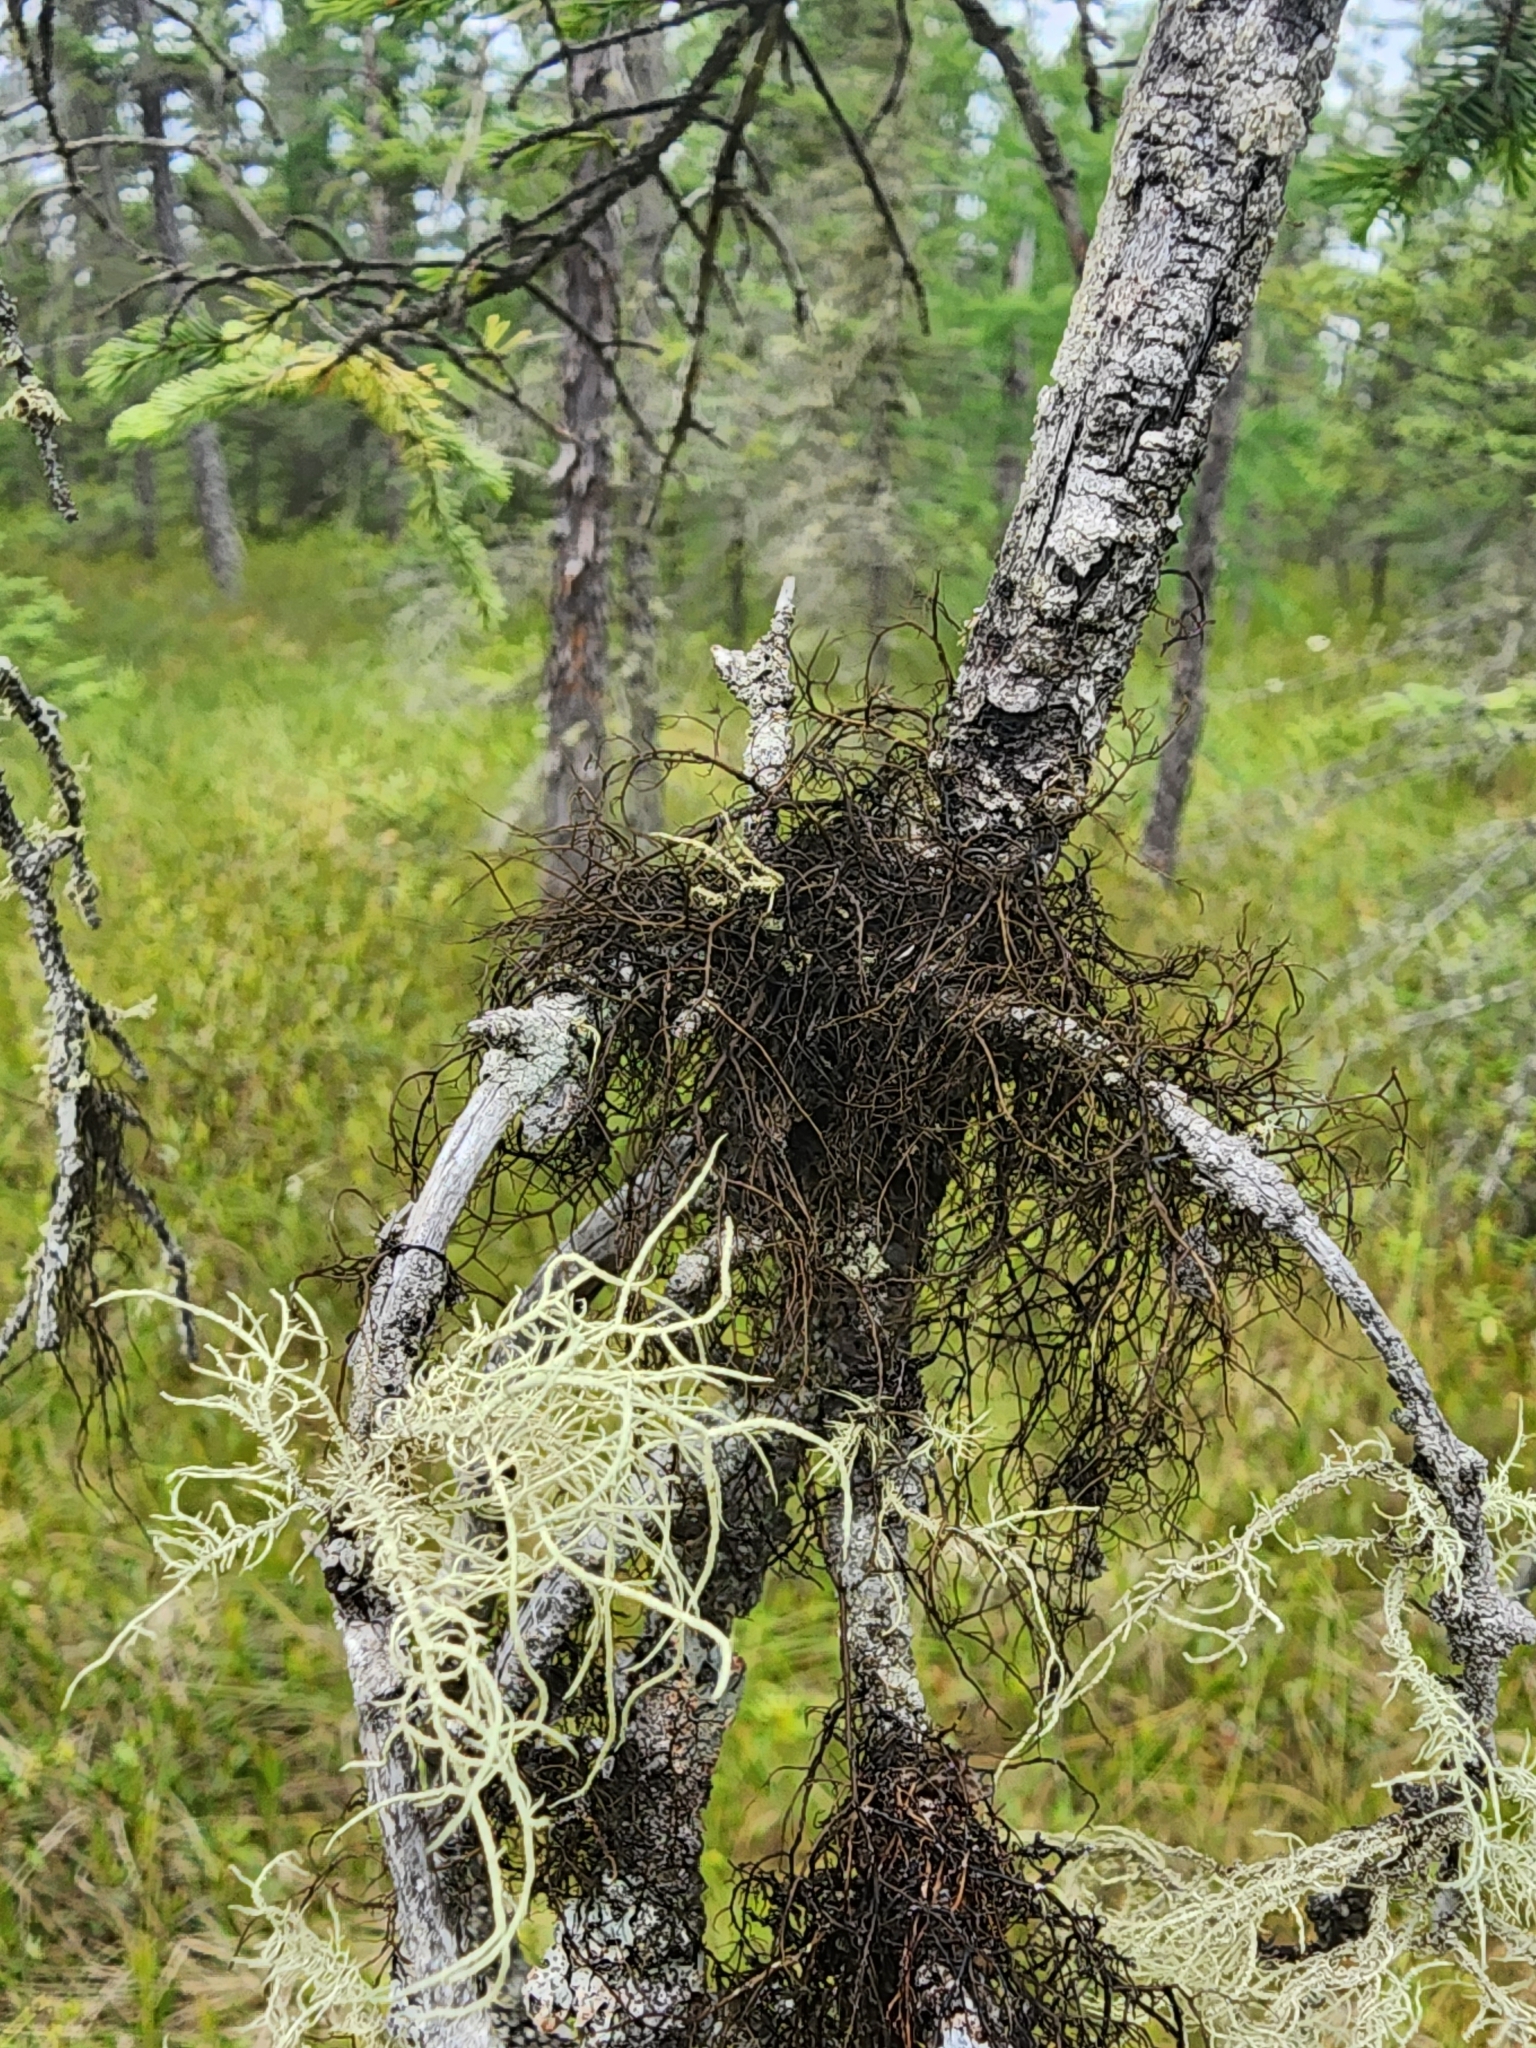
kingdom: Fungi
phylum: Ascomycota
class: Lecanoromycetes
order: Lecanorales
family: Parmeliaceae
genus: Bryoria
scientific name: Bryoria furcellata
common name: Forked hair-lichen
